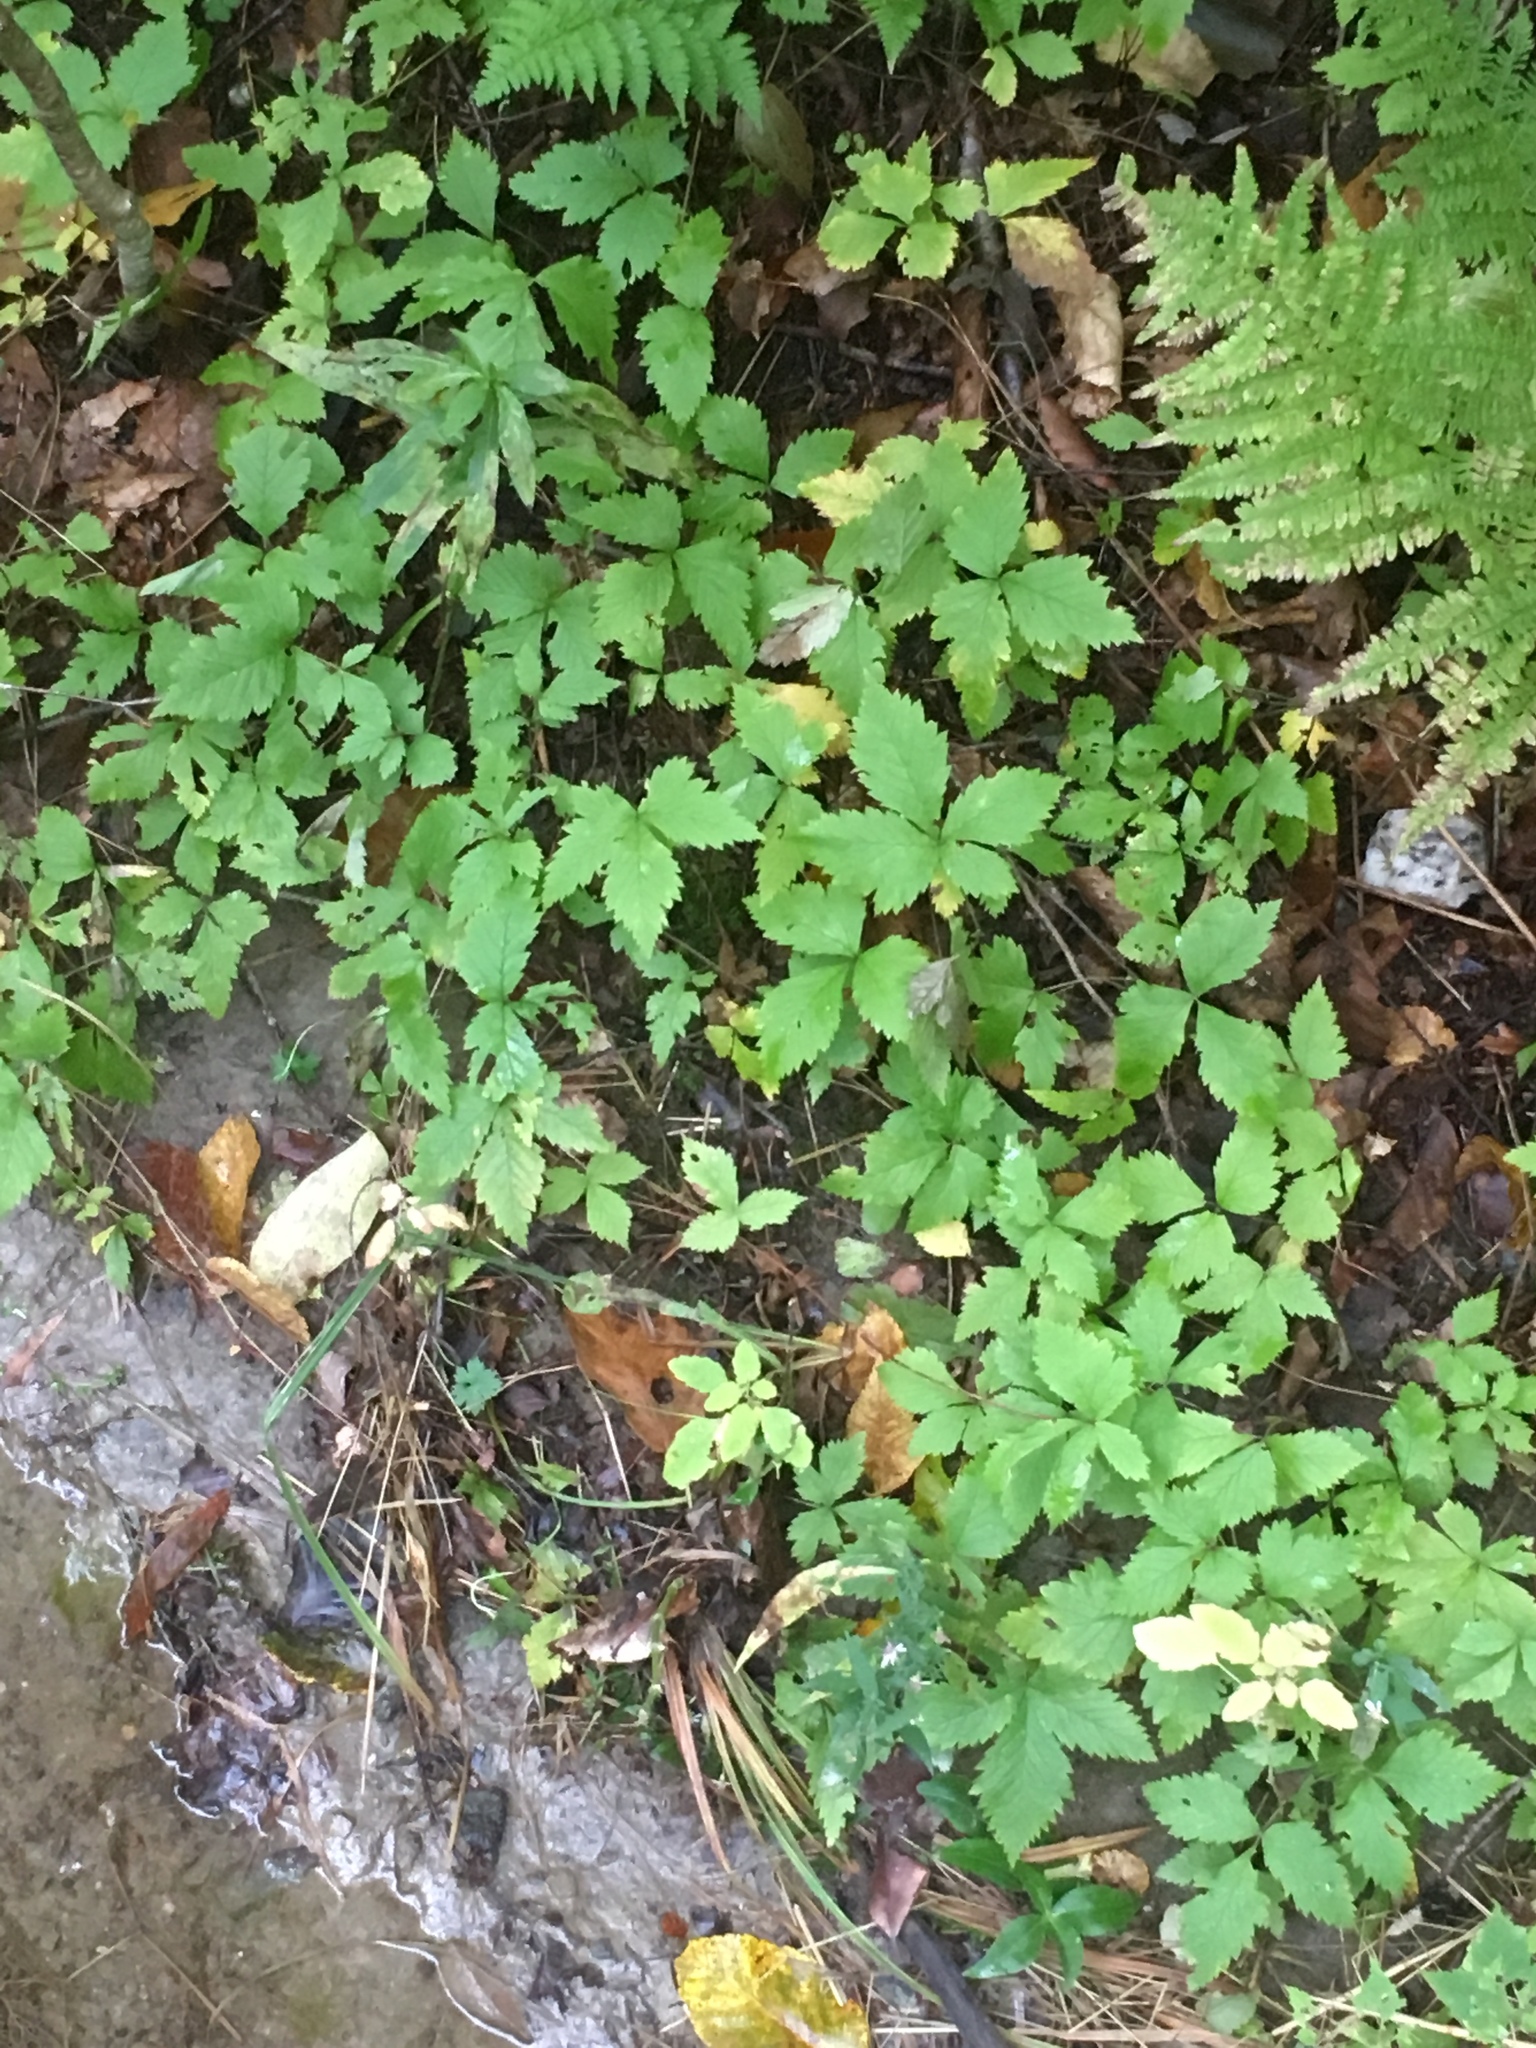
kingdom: Plantae
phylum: Tracheophyta
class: Magnoliopsida
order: Rosales
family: Rosaceae
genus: Rubus
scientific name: Rubus pubescens
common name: Dwarf raspberry
